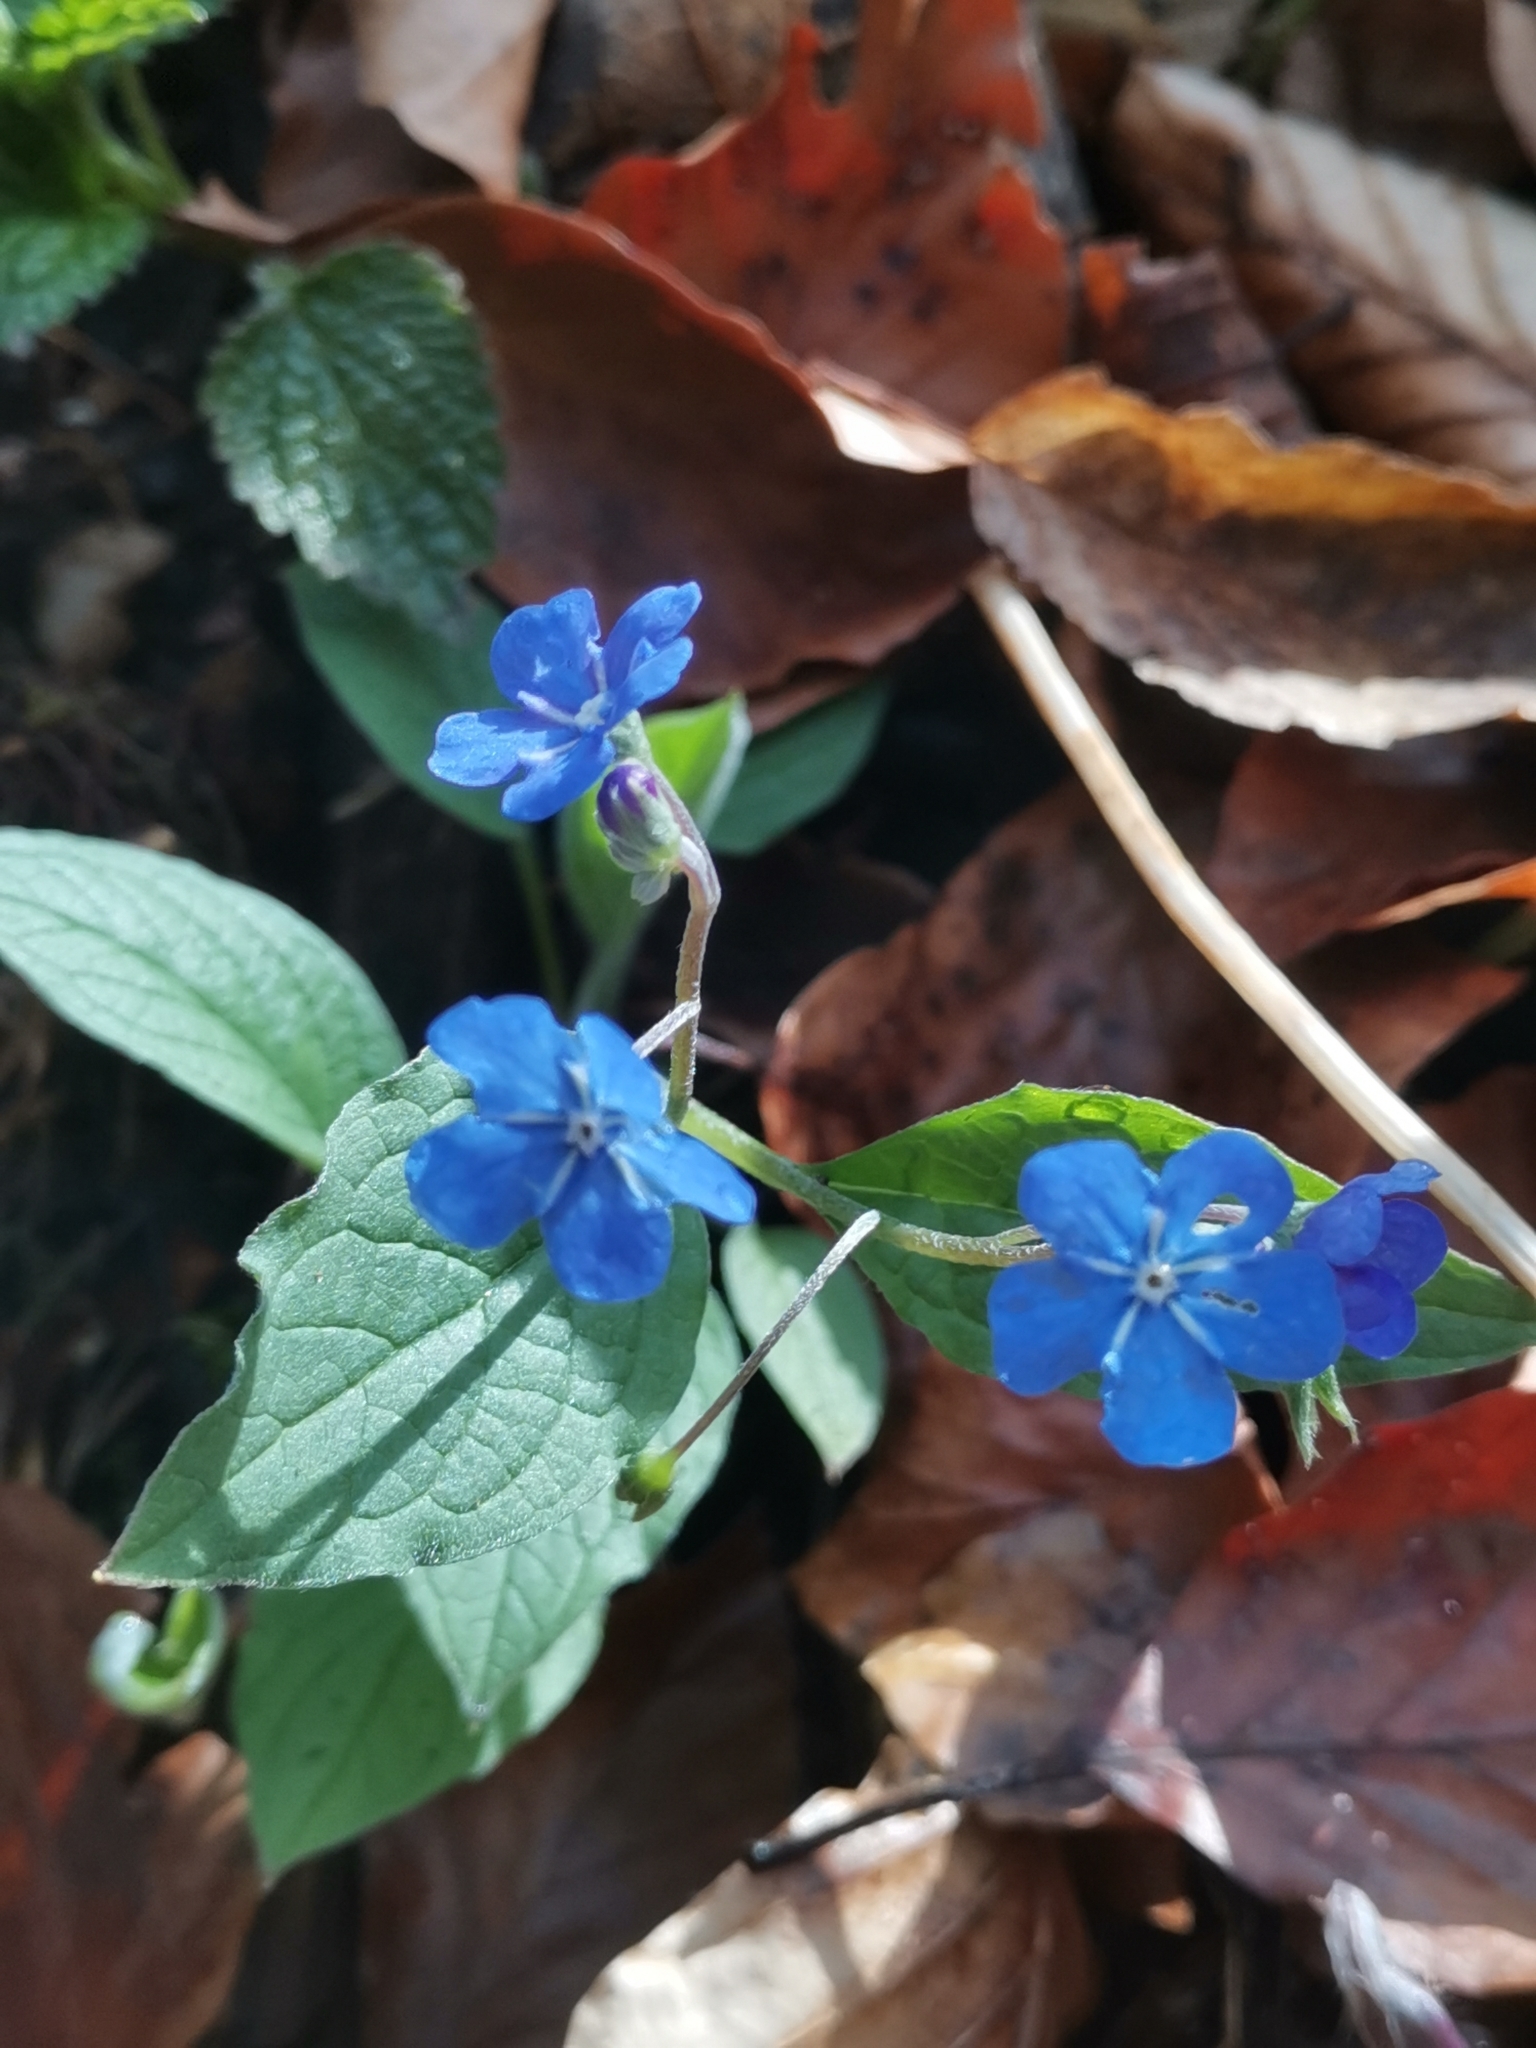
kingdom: Plantae
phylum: Tracheophyta
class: Magnoliopsida
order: Boraginales
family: Boraginaceae
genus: Omphalodes
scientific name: Omphalodes verna
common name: Blue-eyed-mary
